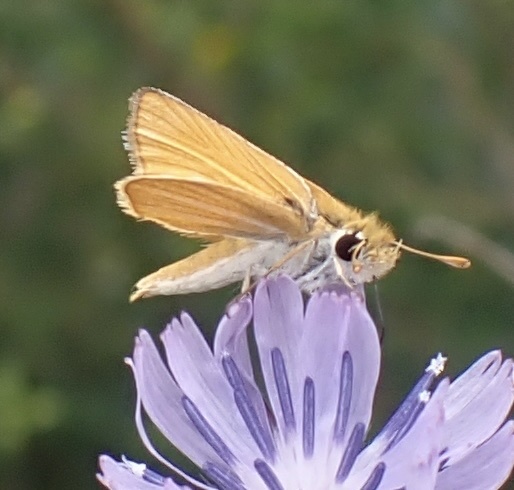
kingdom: Animalia
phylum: Arthropoda
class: Insecta
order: Lepidoptera
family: Hesperiidae
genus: Copaeodes
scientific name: Copaeodes minima
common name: Southern skipperling
